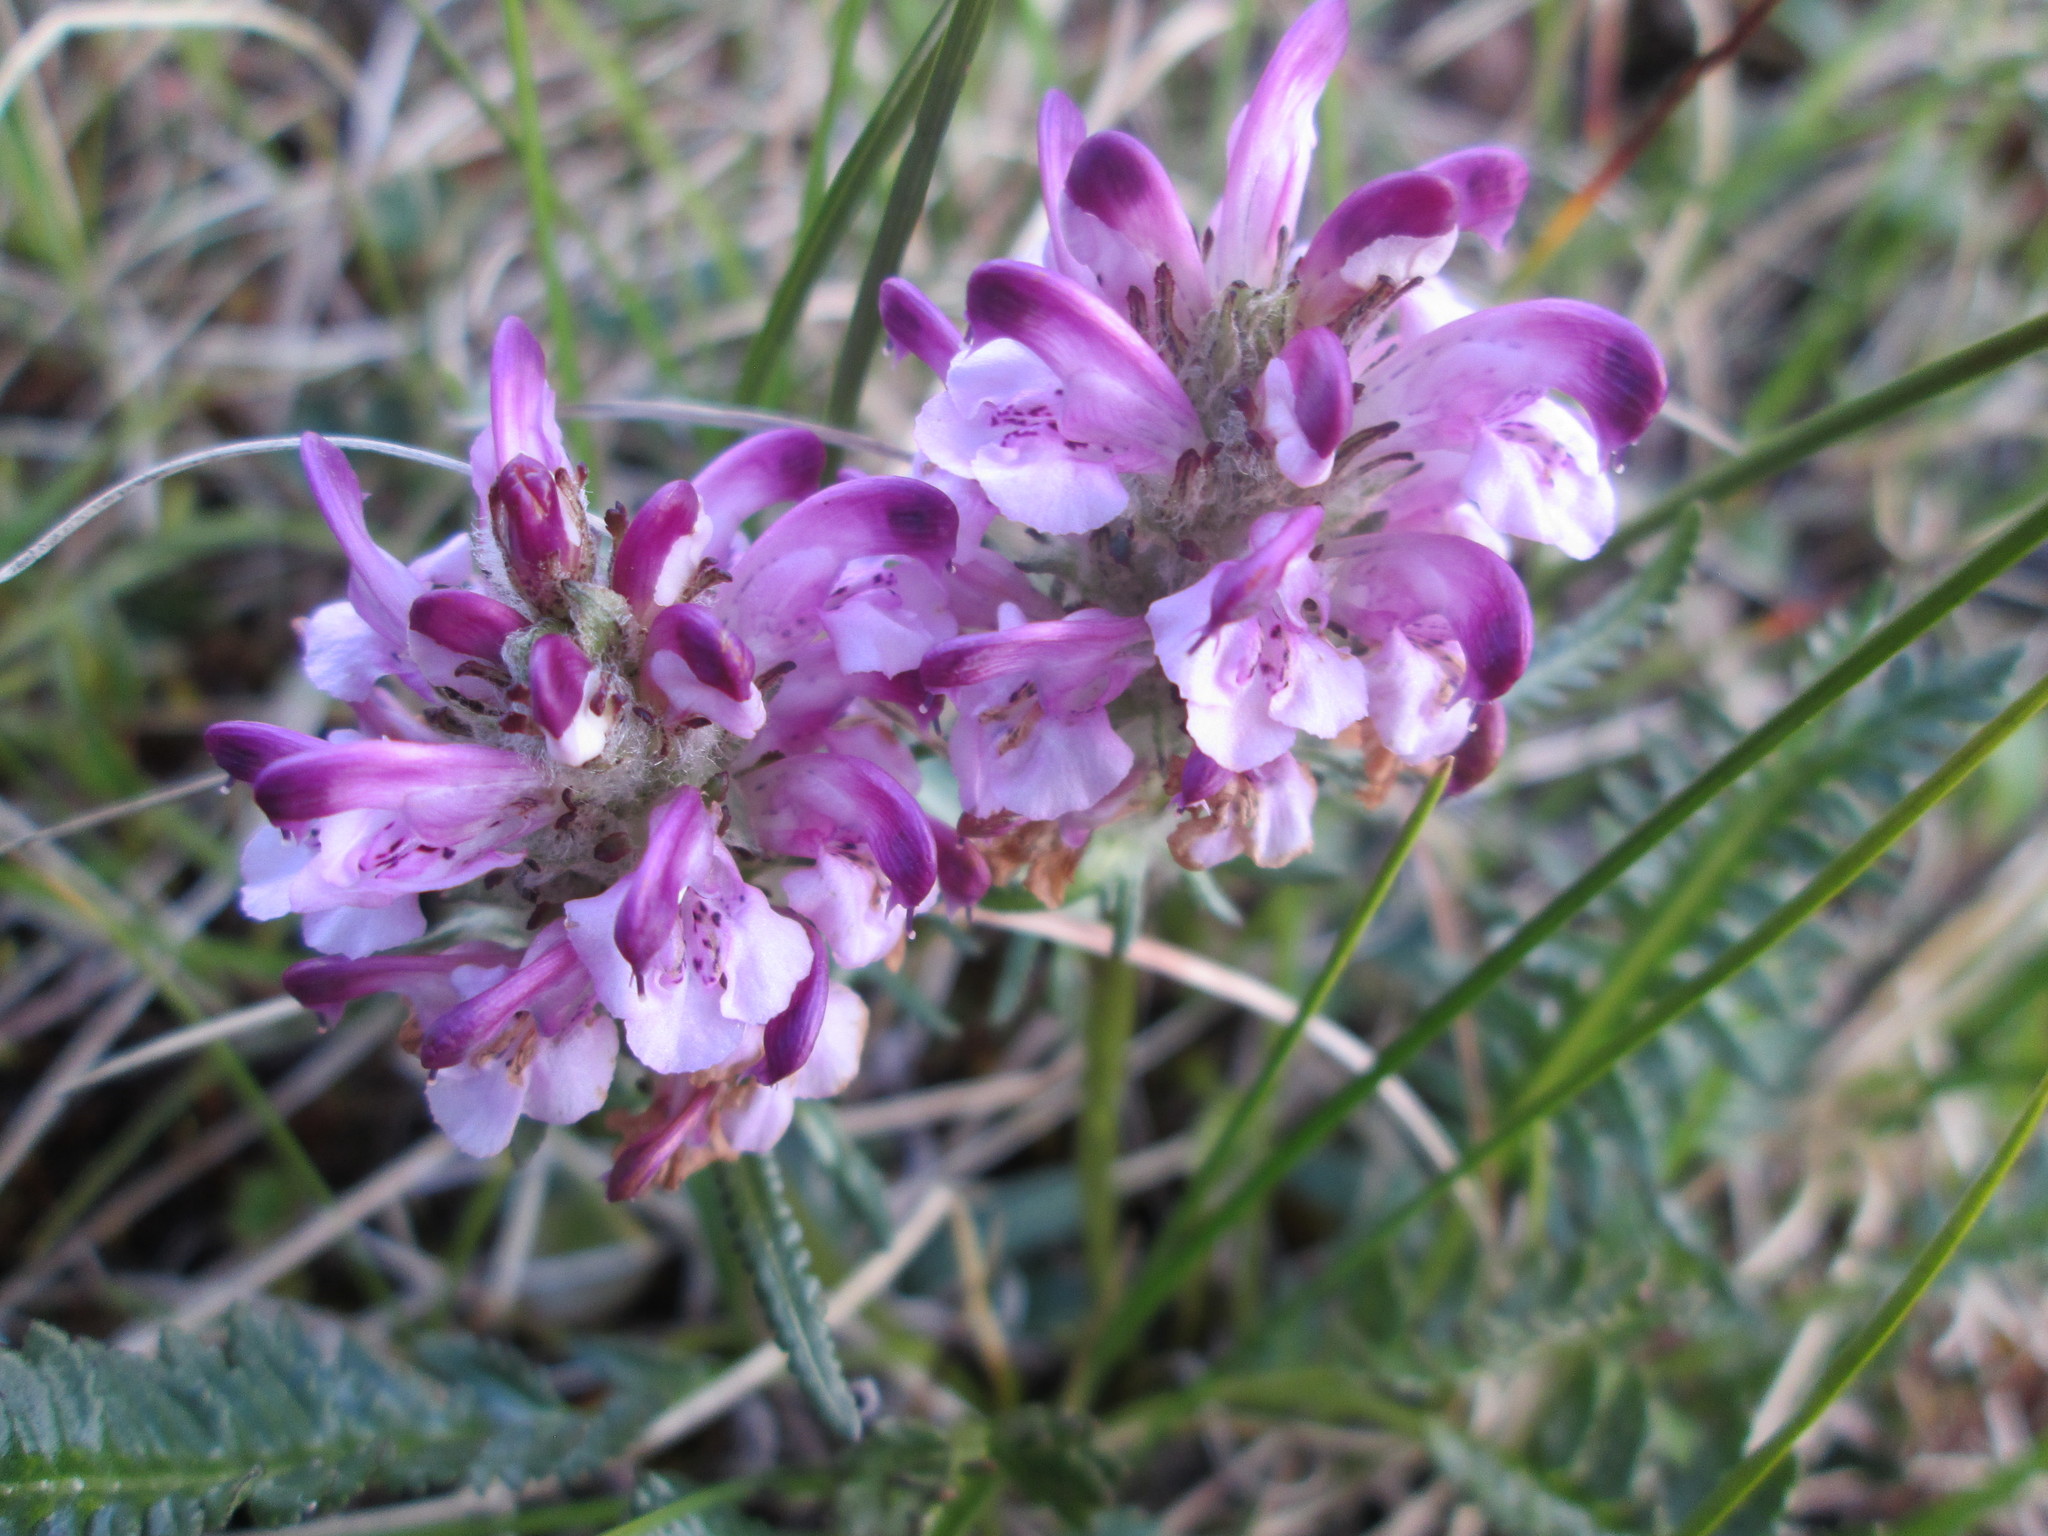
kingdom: Plantae
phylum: Tracheophyta
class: Magnoliopsida
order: Lamiales
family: Orobanchaceae
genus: Pedicularis
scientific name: Pedicularis novaiae-zemliae
